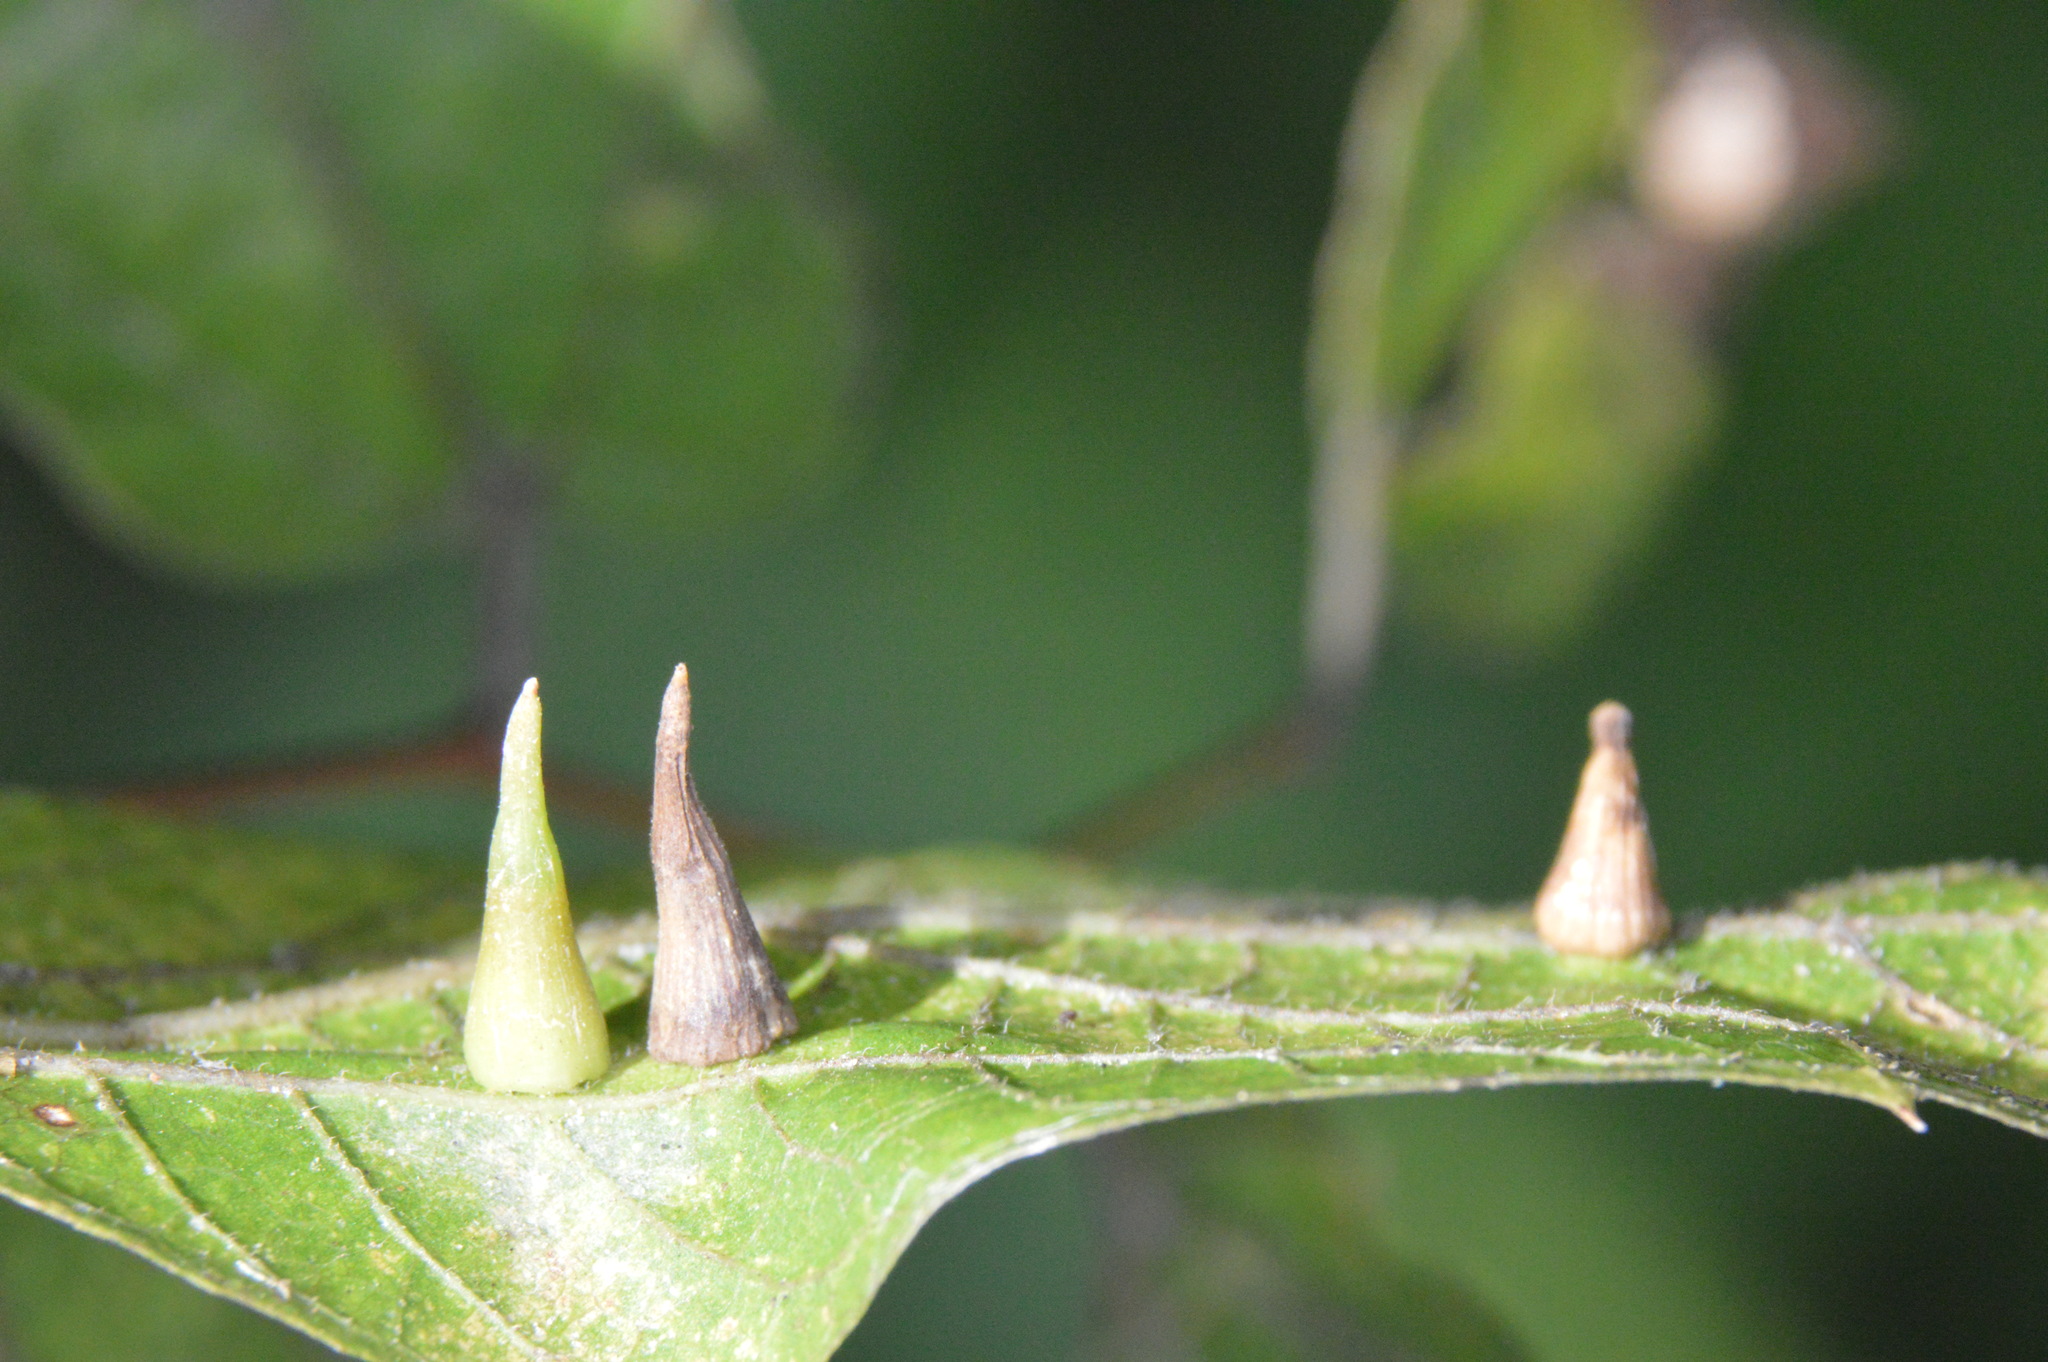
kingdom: Animalia
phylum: Arthropoda
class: Insecta
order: Diptera
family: Cecidomyiidae
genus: Celticecis
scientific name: Celticecis subulata
